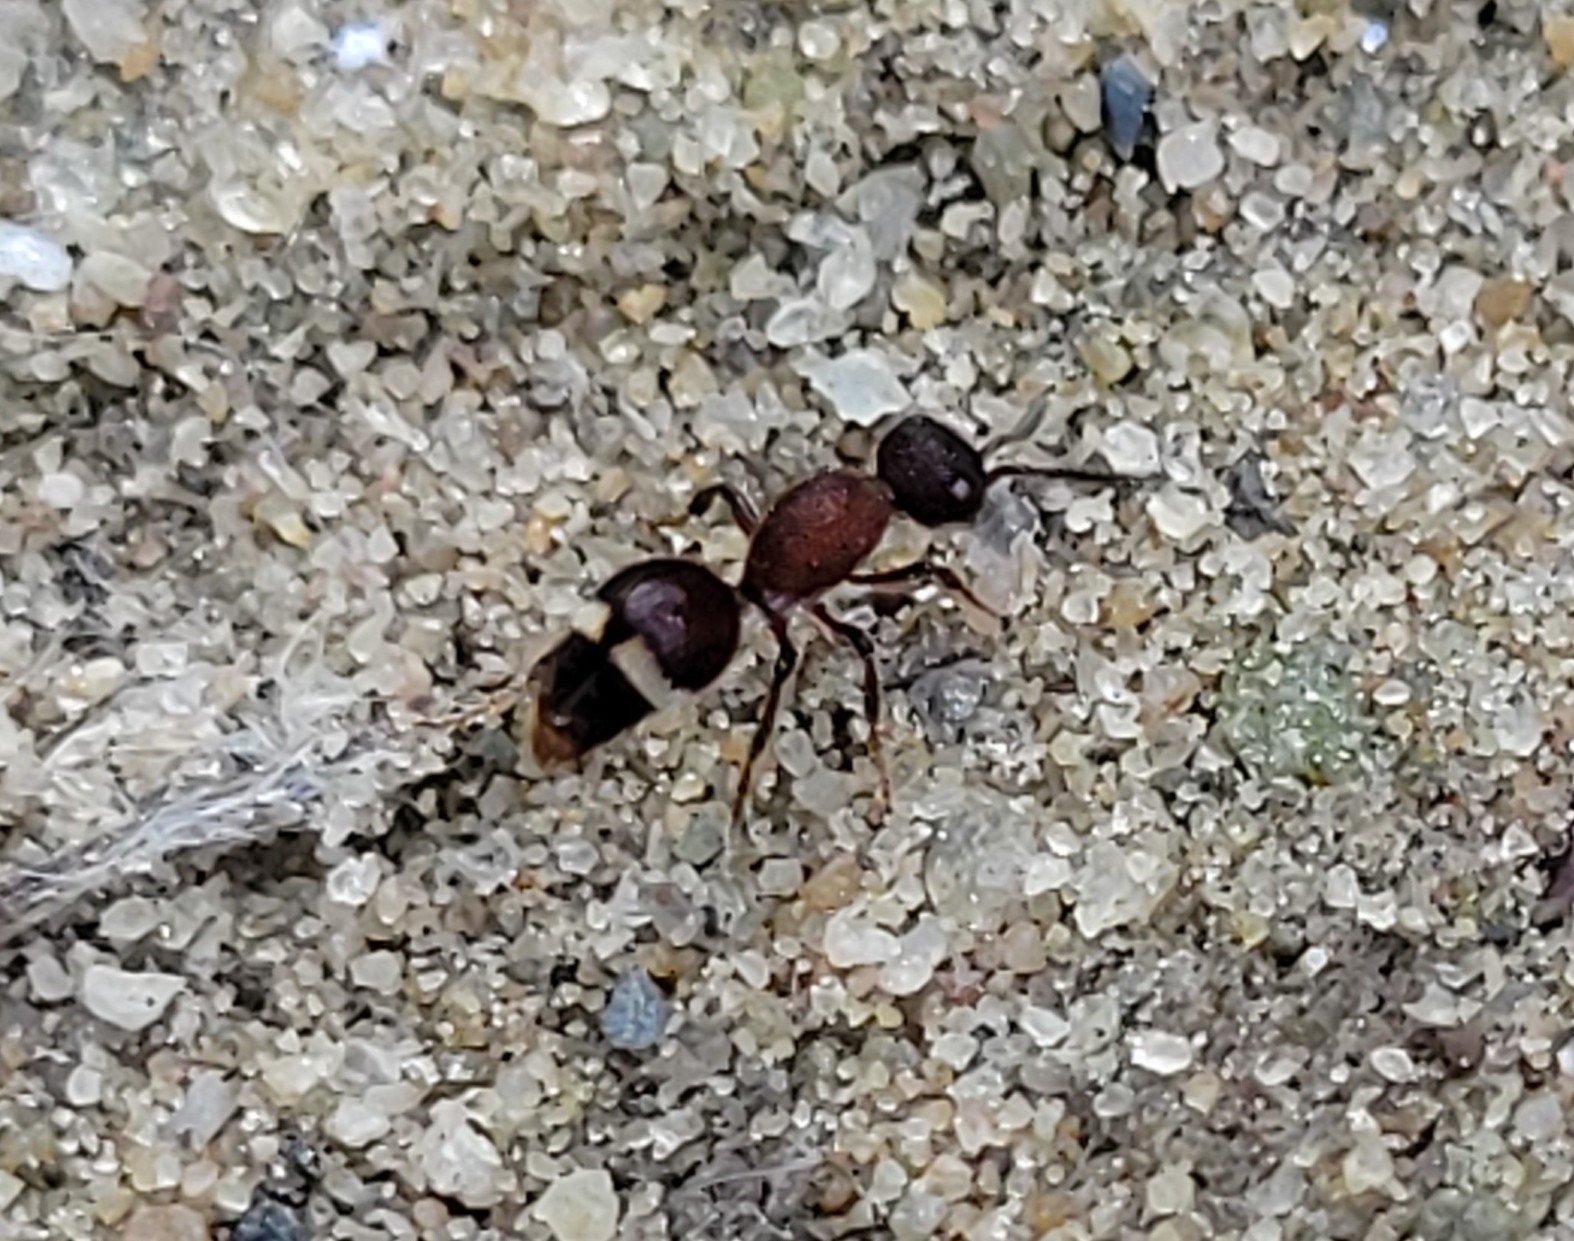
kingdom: Animalia
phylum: Arthropoda
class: Insecta
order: Hymenoptera
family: Mutillidae
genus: Ephuta
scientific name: Ephuta scrupea
